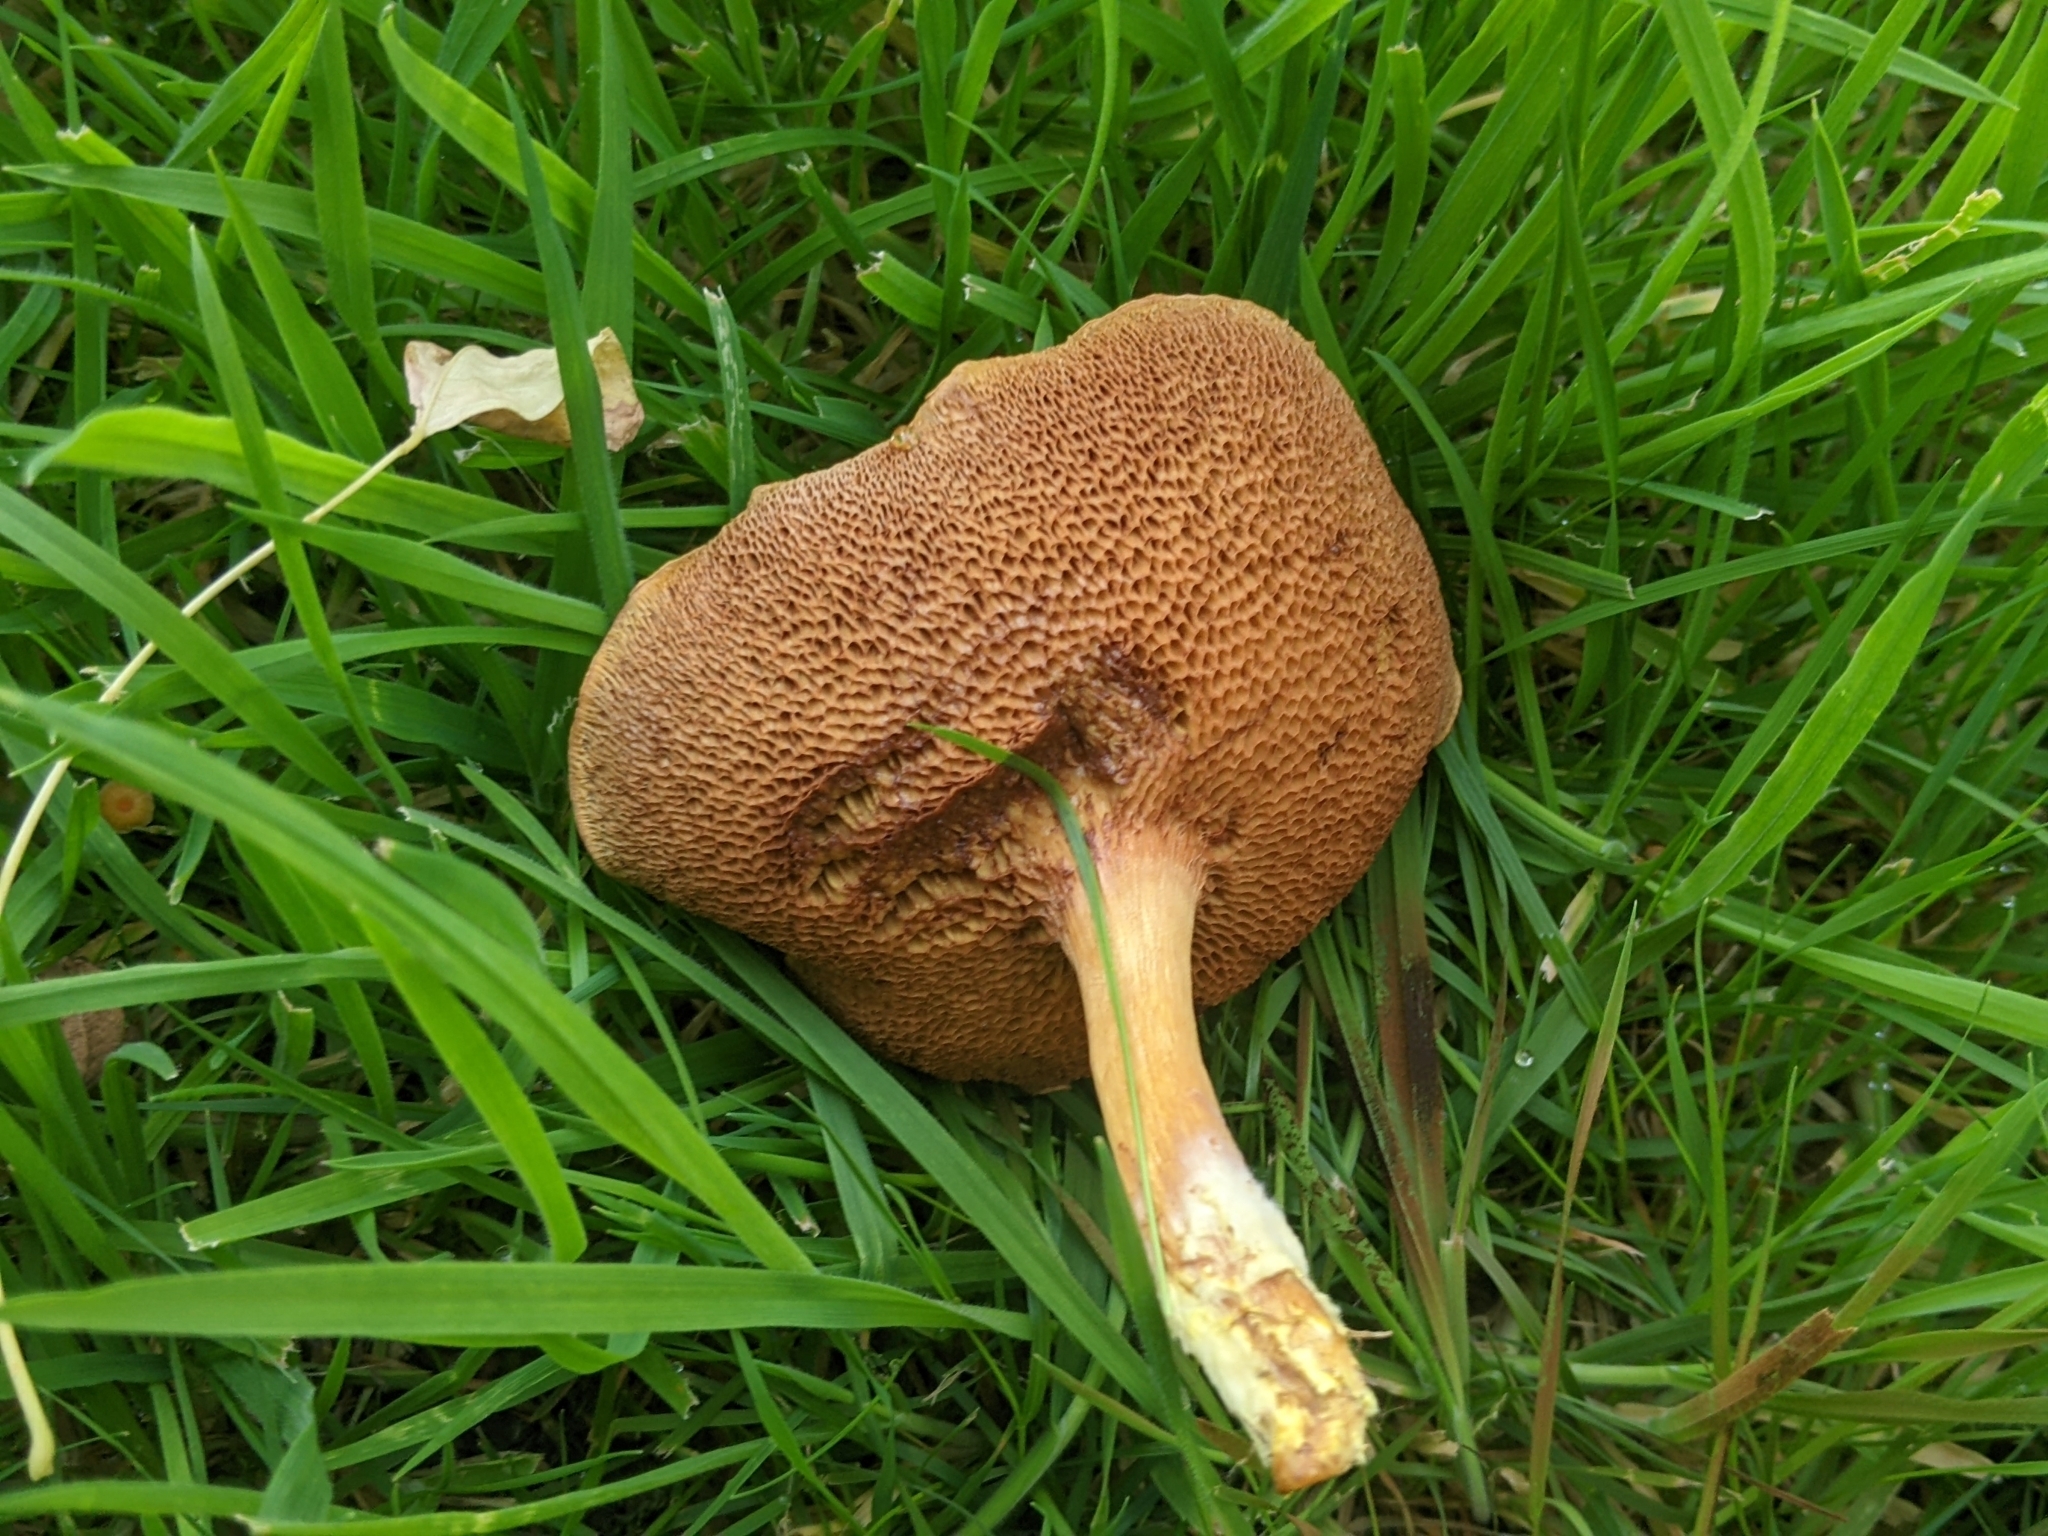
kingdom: Fungi
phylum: Basidiomycota
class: Agaricomycetes
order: Boletales
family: Boletaceae
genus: Chalciporus
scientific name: Chalciporus piperatus
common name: Peppery bolete
